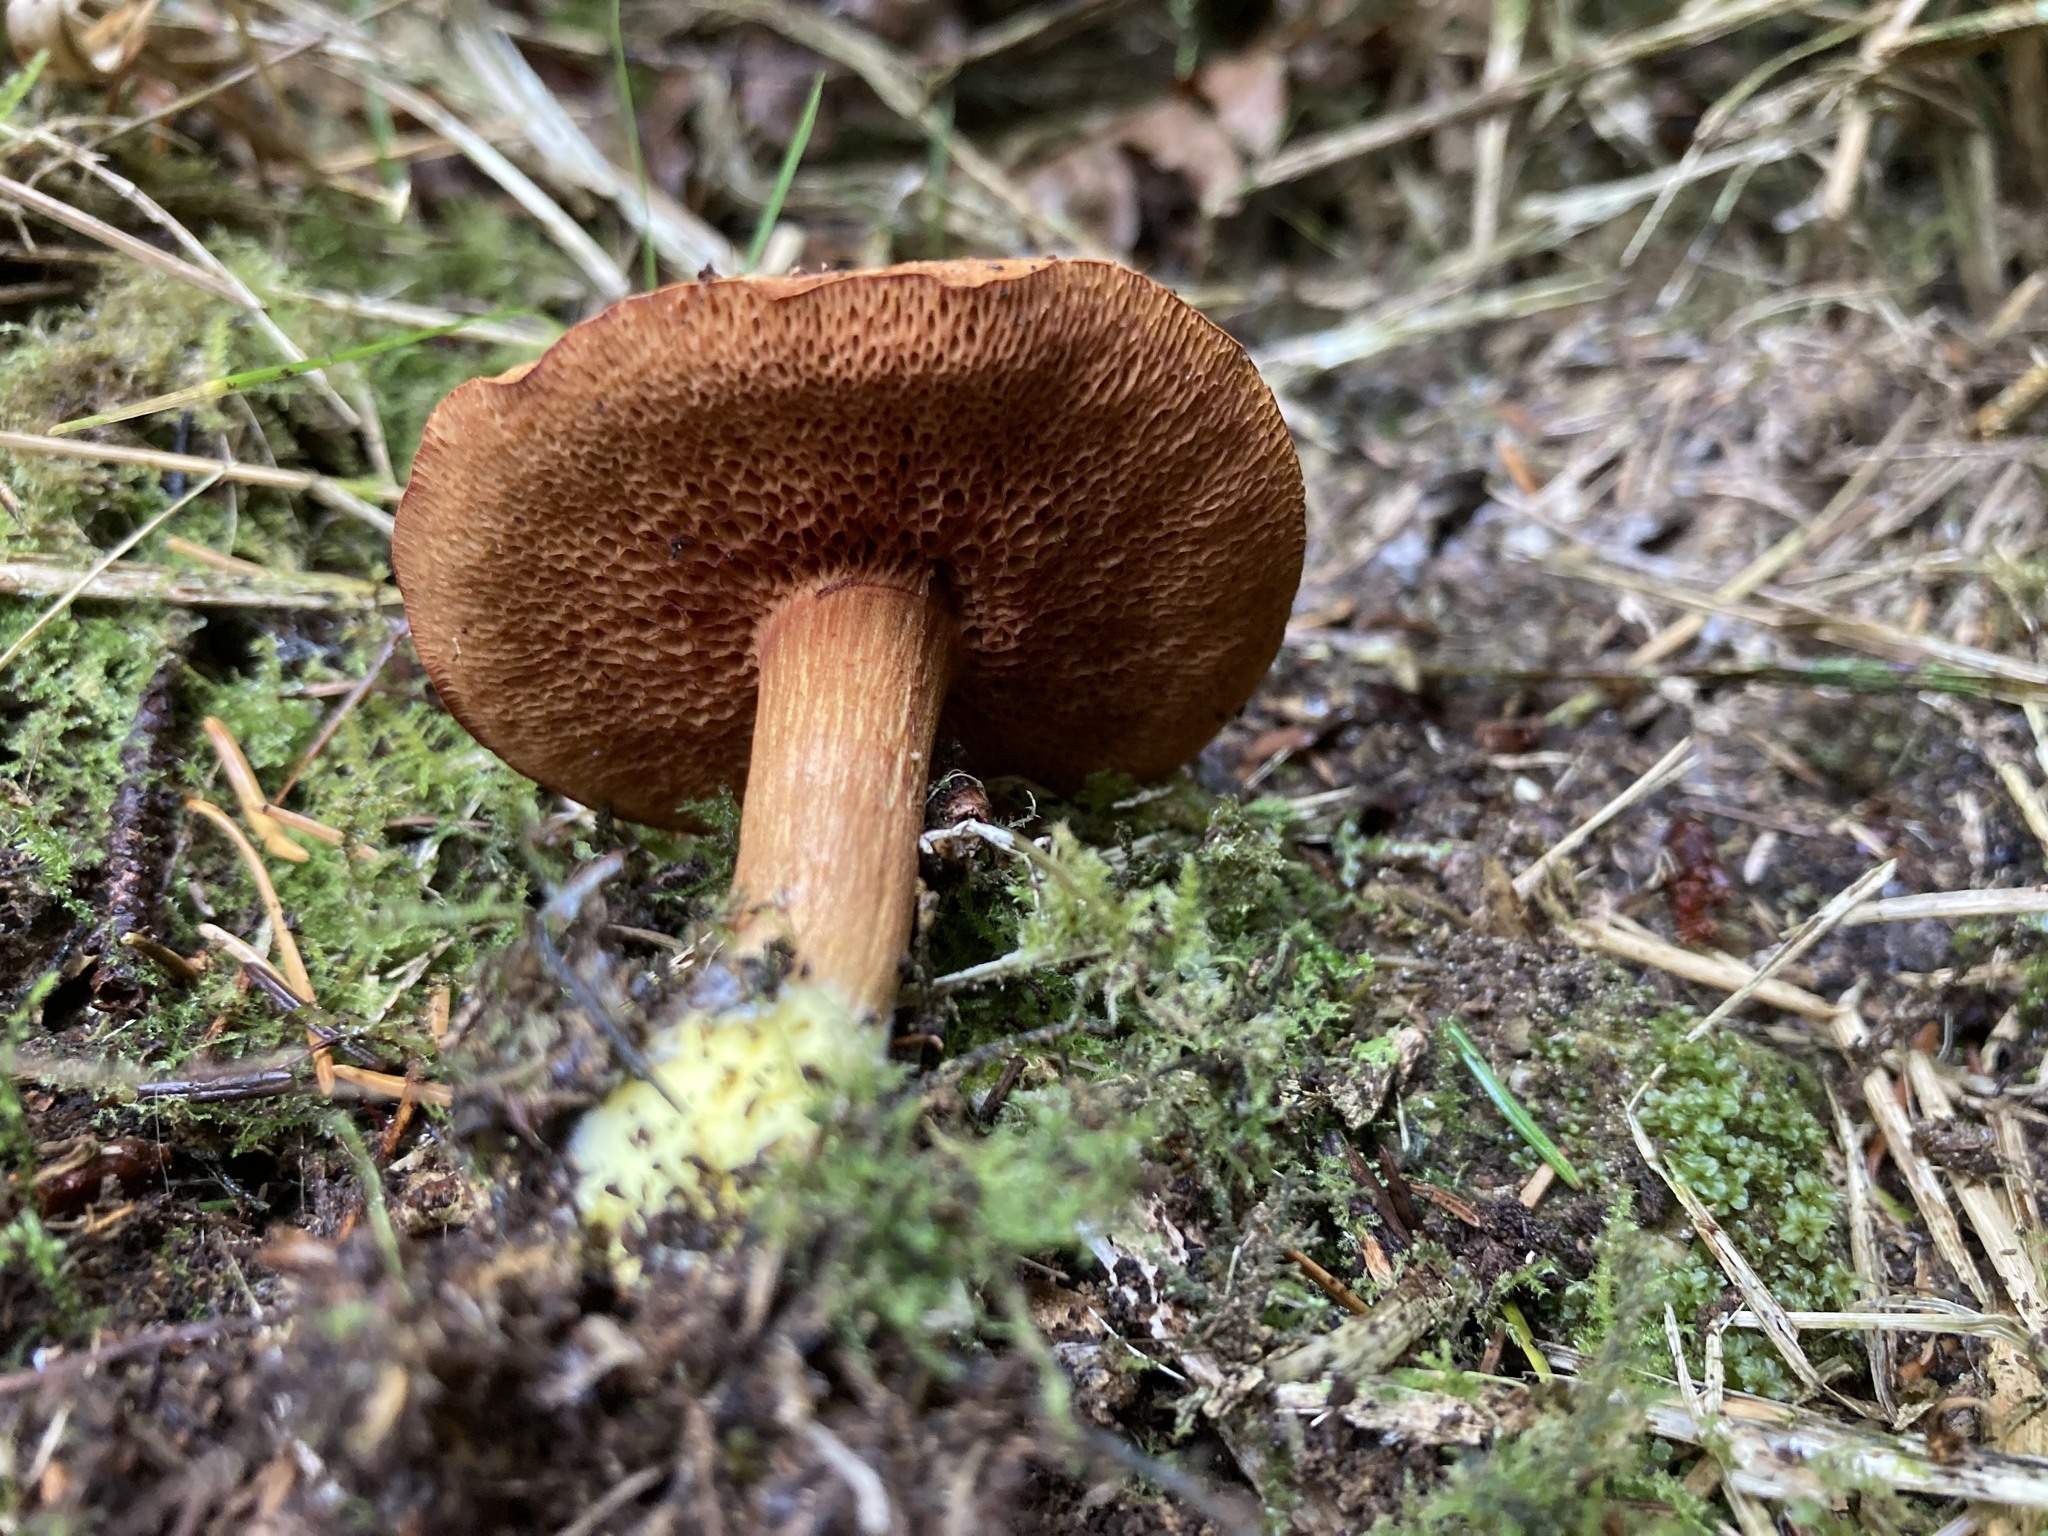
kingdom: Fungi
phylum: Basidiomycota
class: Agaricomycetes
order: Boletales
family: Boletaceae
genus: Chalciporus
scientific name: Chalciporus piperatus
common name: Peppery bolete
